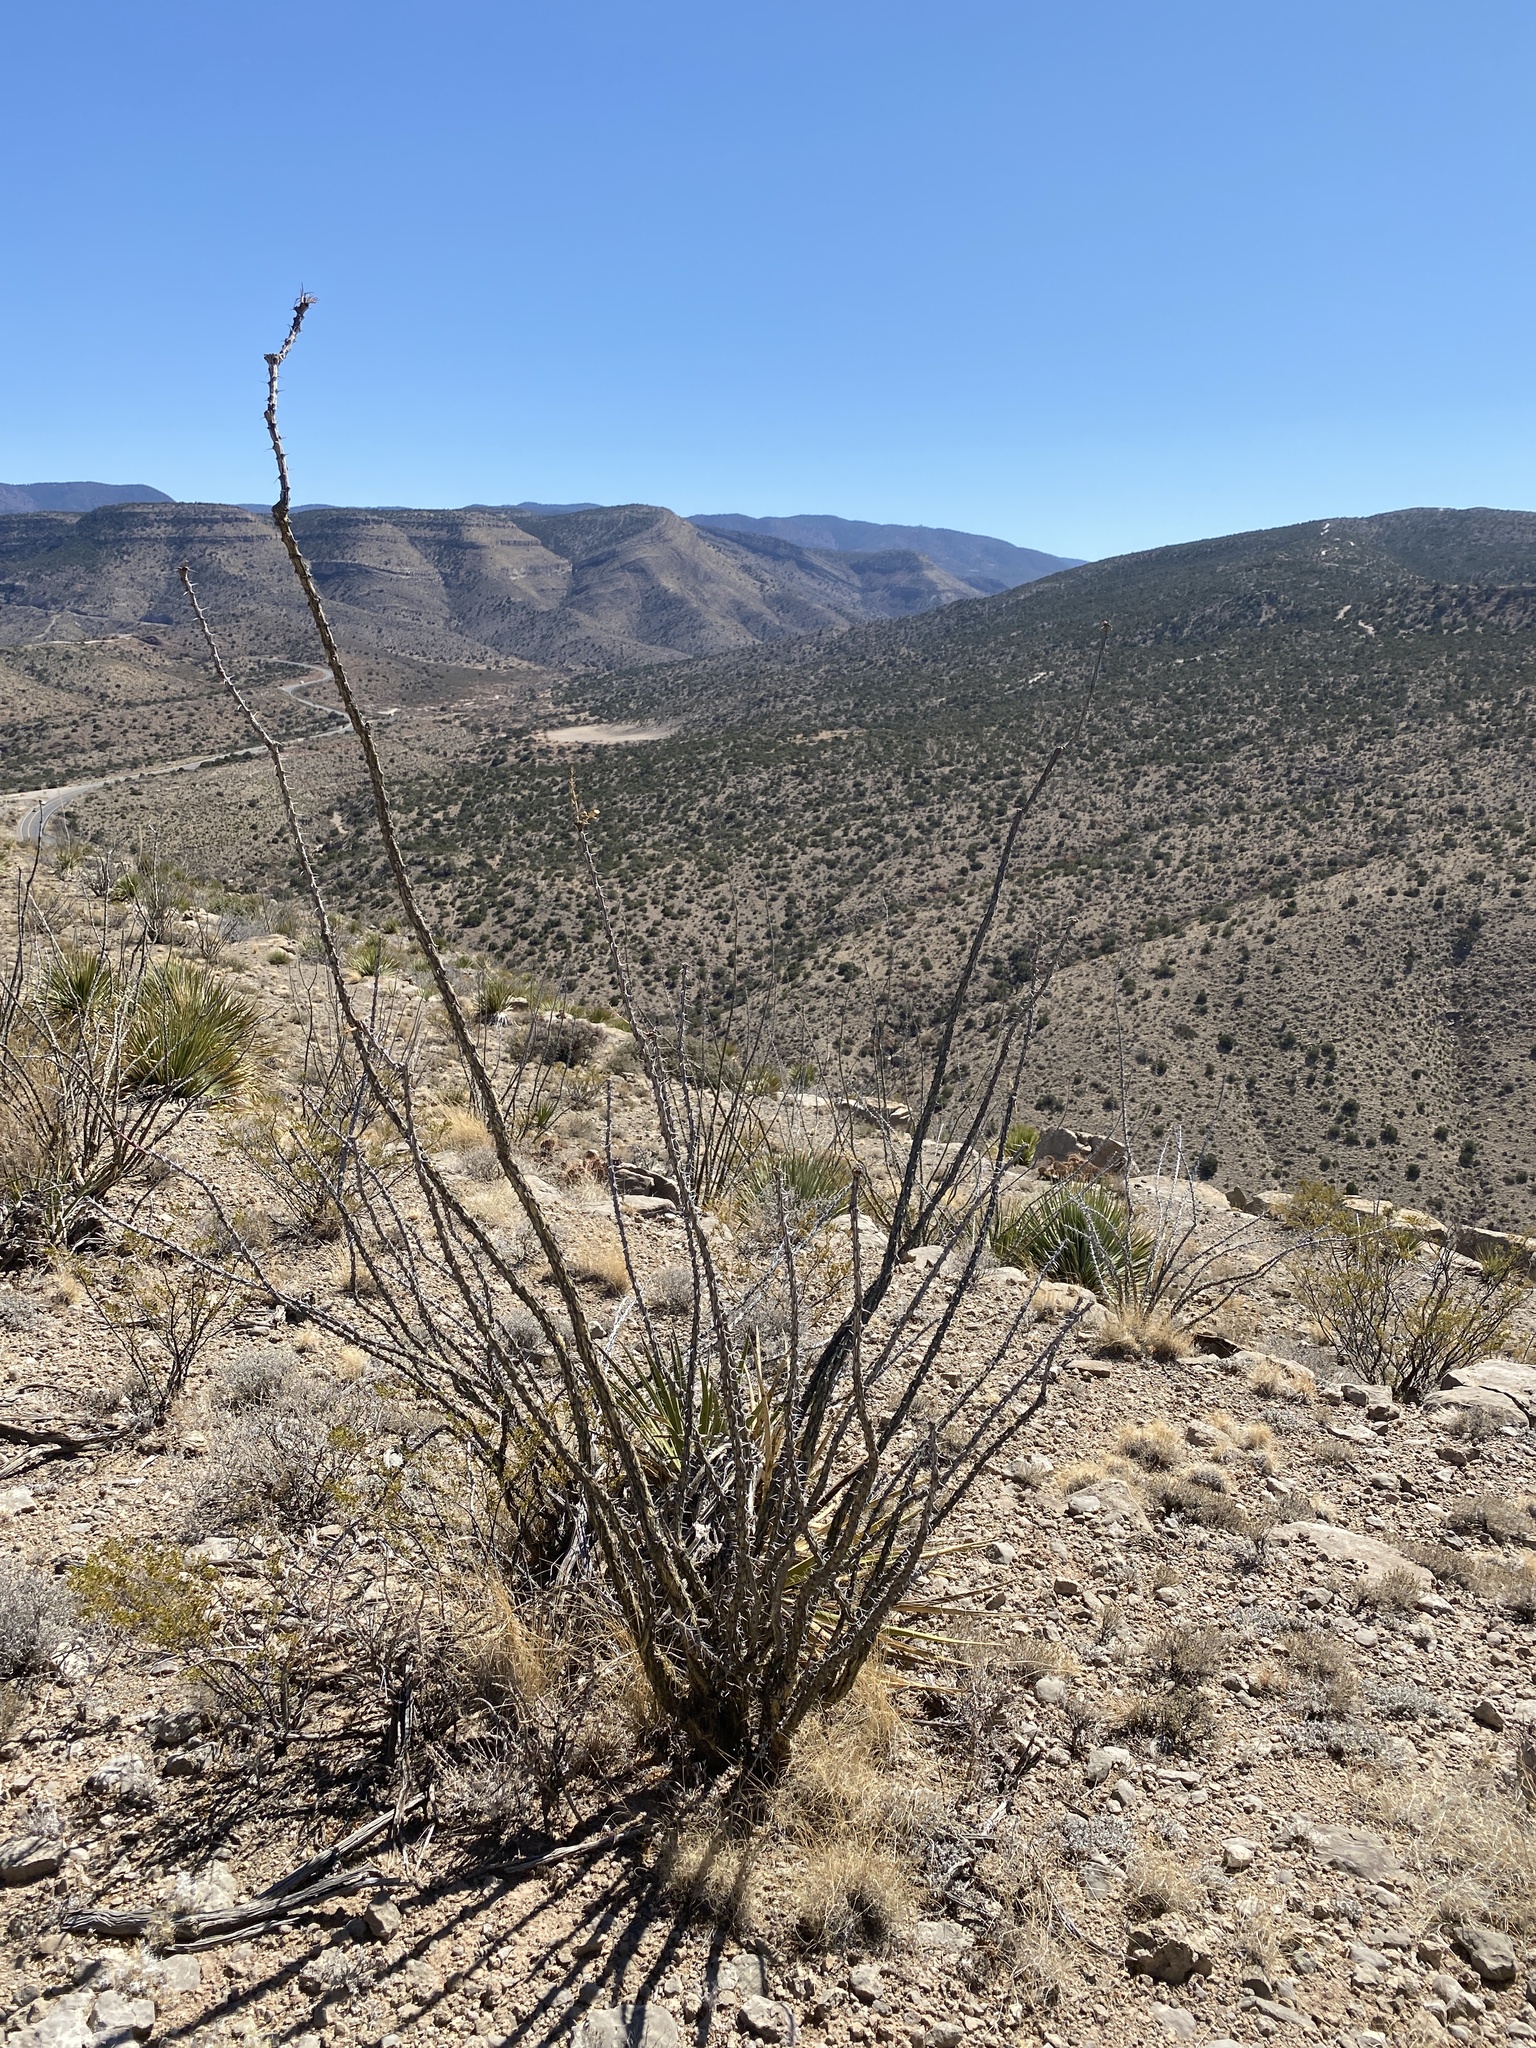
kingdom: Plantae
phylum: Tracheophyta
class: Magnoliopsida
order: Ericales
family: Fouquieriaceae
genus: Fouquieria
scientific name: Fouquieria splendens
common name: Vine-cactus
